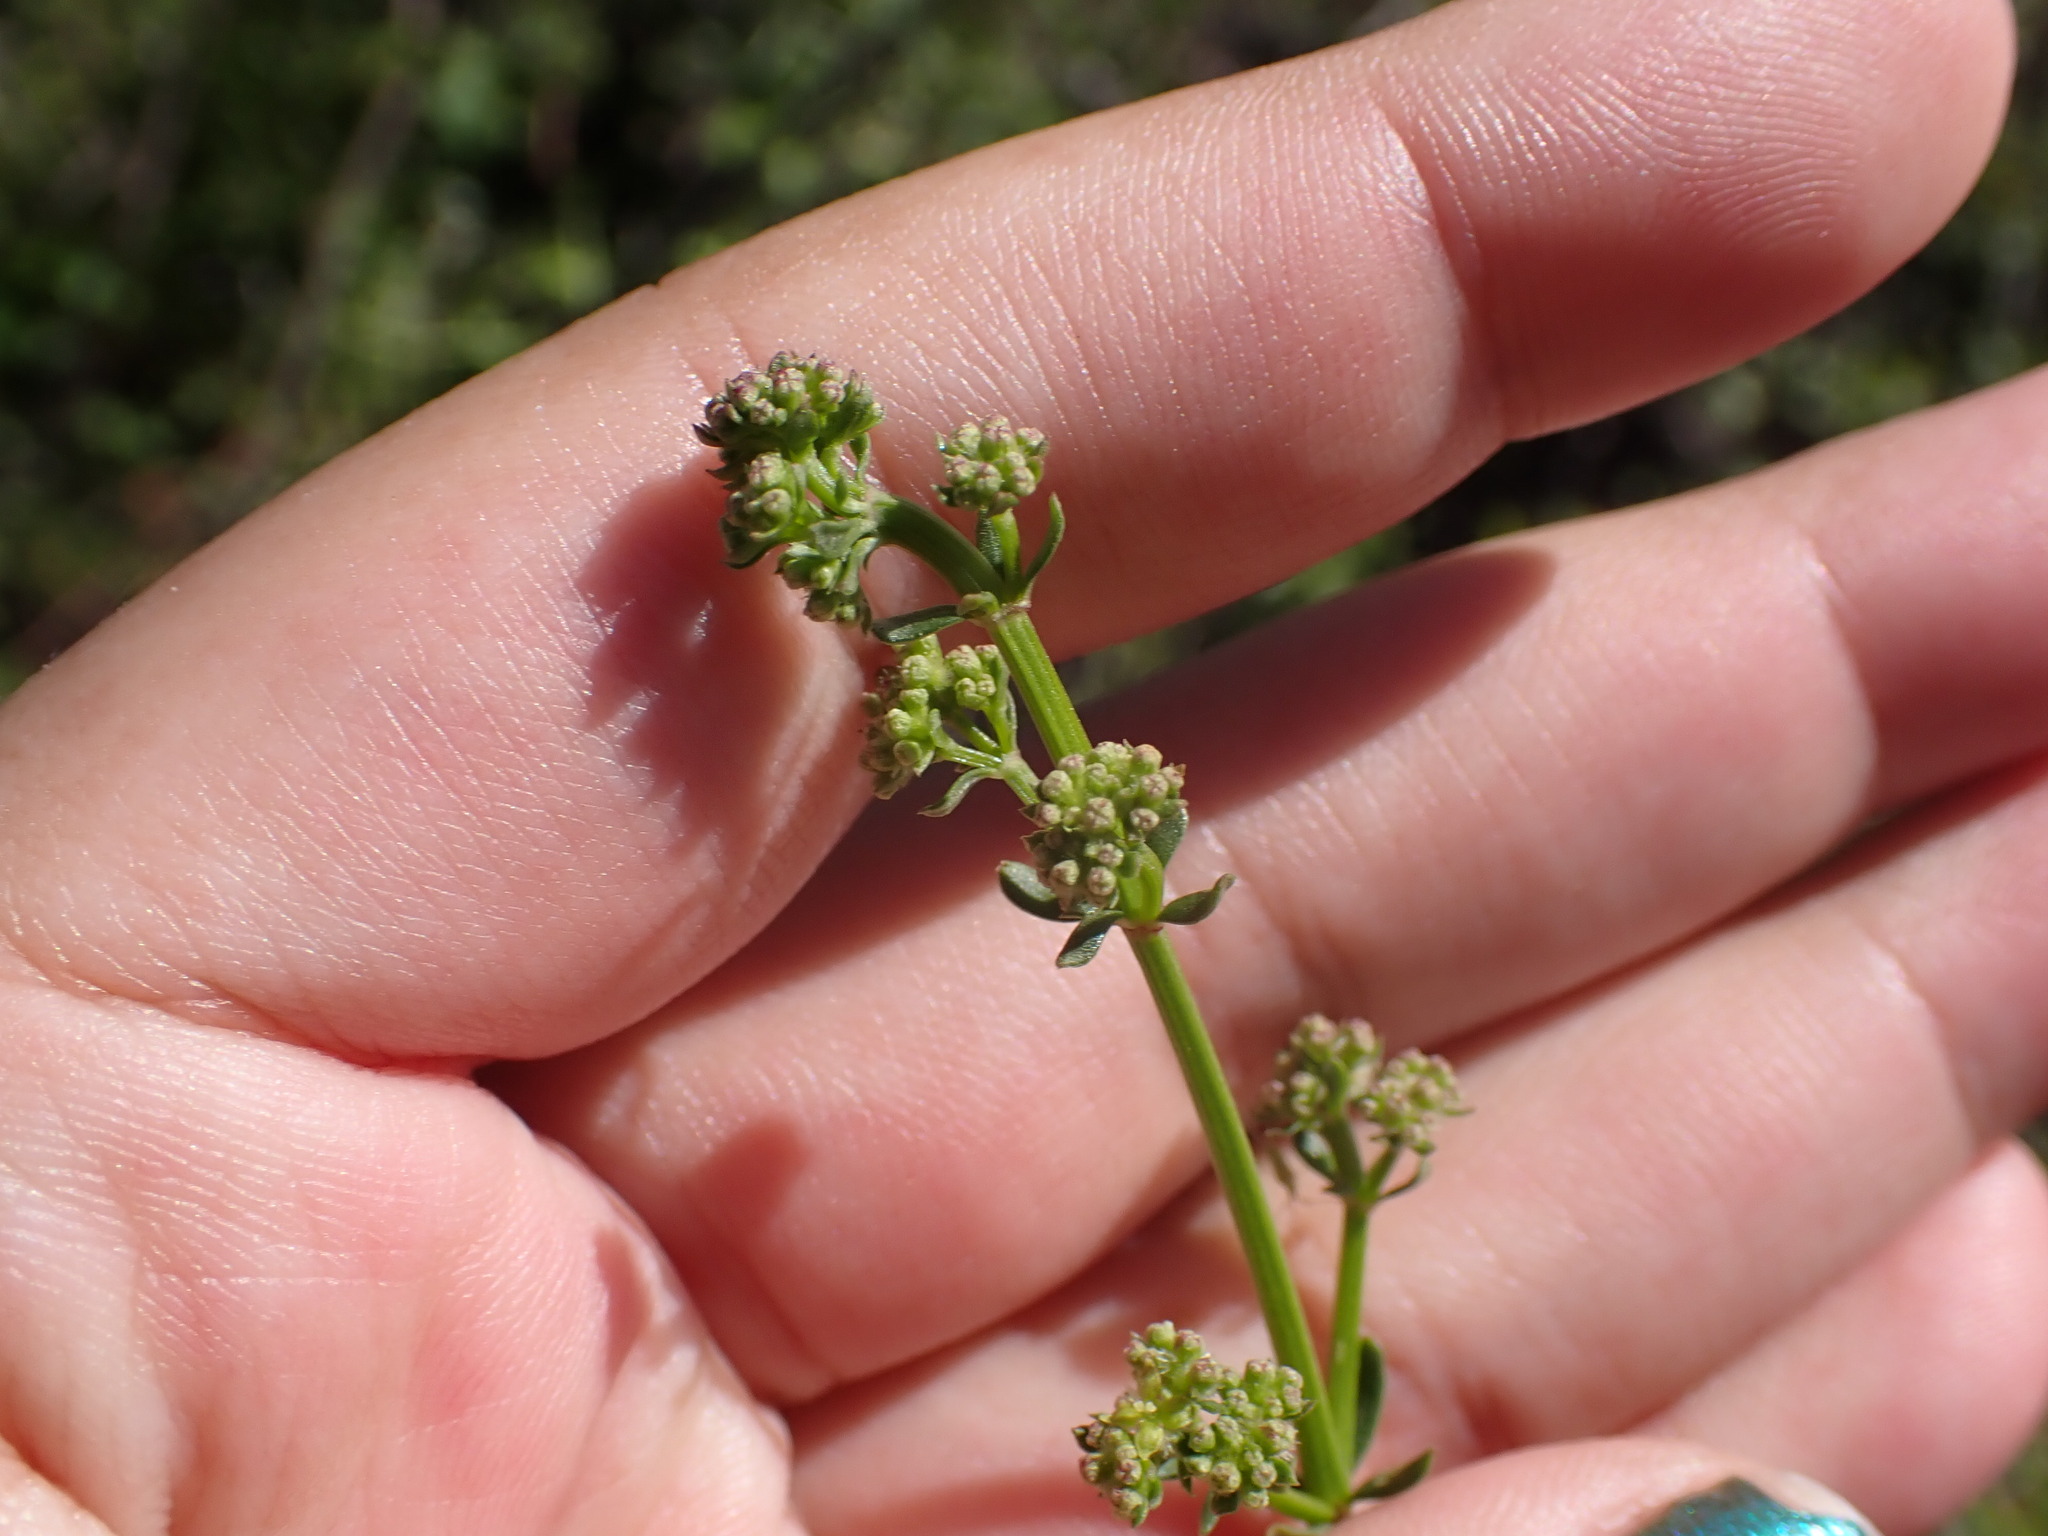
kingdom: Plantae
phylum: Tracheophyta
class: Magnoliopsida
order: Gentianales
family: Rubiaceae
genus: Galium
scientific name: Galium angustifolium
